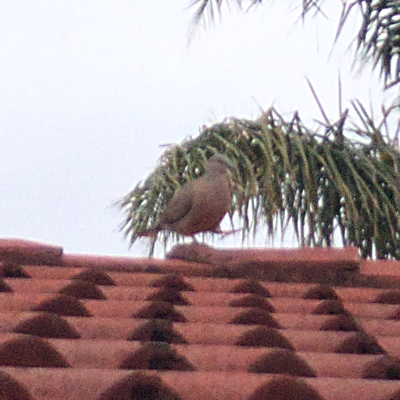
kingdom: Animalia
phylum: Chordata
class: Aves
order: Columbiformes
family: Columbidae
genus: Spilopelia
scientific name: Spilopelia chinensis
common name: Spotted dove
